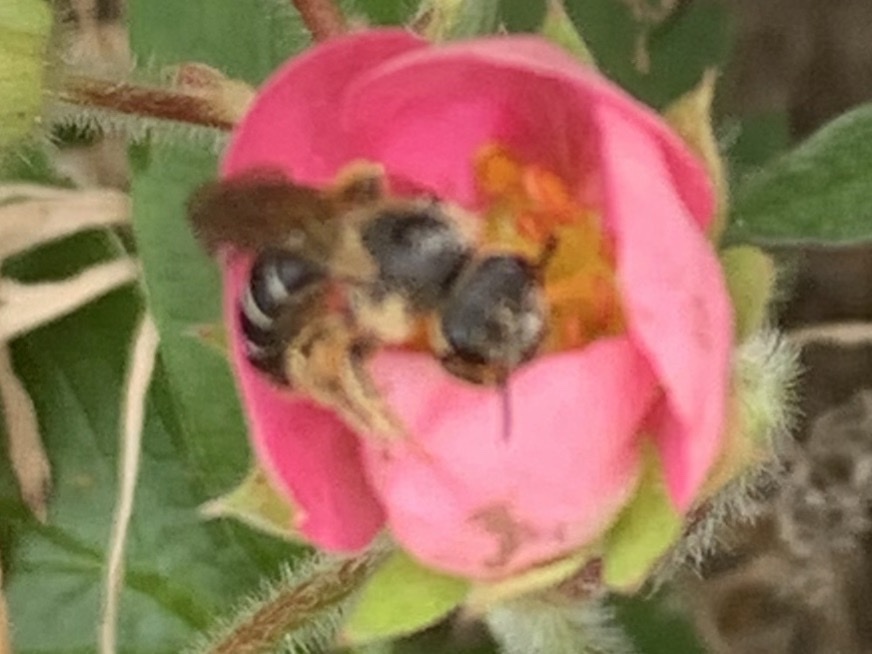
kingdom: Animalia
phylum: Arthropoda
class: Insecta
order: Hymenoptera
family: Halictidae
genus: Halictus
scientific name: Halictus rubicundus
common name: Orange-legged furrow bee
